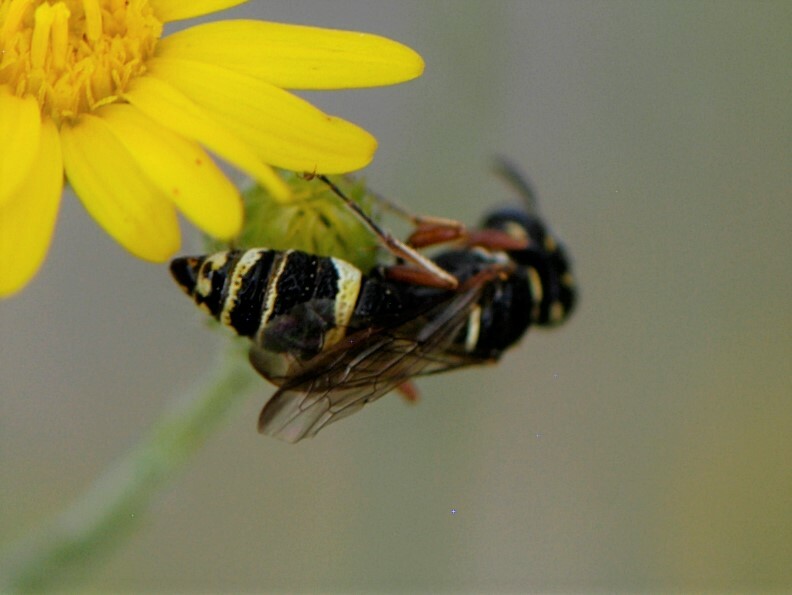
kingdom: Animalia
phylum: Arthropoda
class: Insecta
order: Hymenoptera
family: Crabronidae
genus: Philanthus
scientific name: Philanthus gibbosus
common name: Humped beewolf
